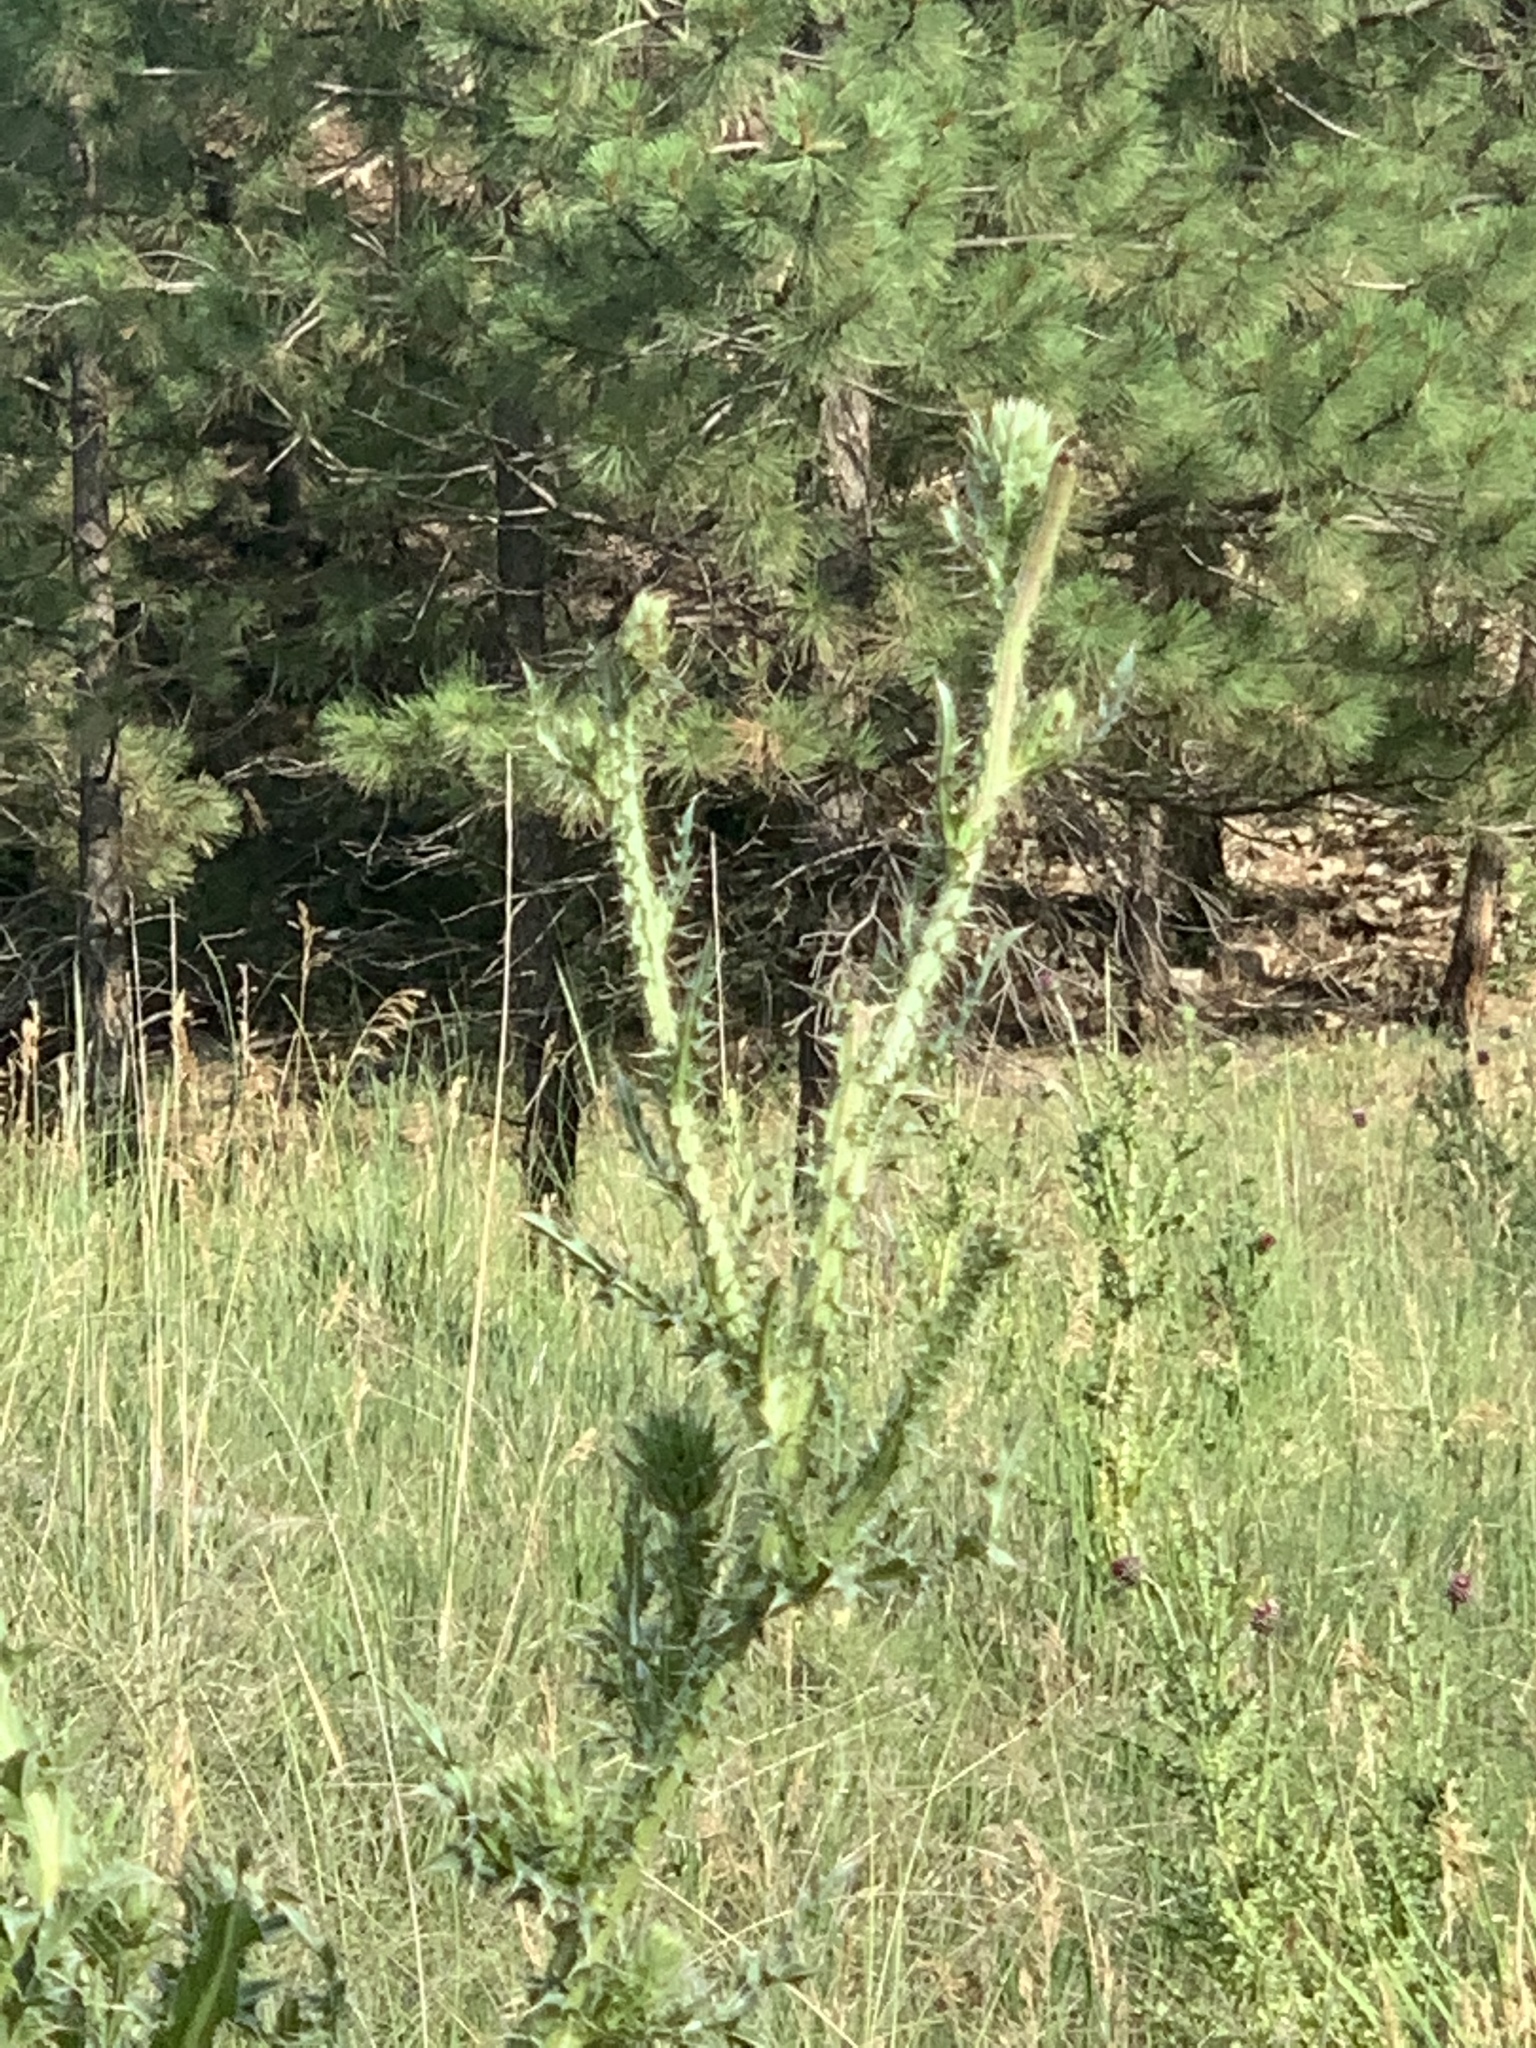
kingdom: Plantae
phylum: Tracheophyta
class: Magnoliopsida
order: Asterales
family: Asteraceae
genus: Carduus
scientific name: Carduus nutans
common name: Musk thistle
